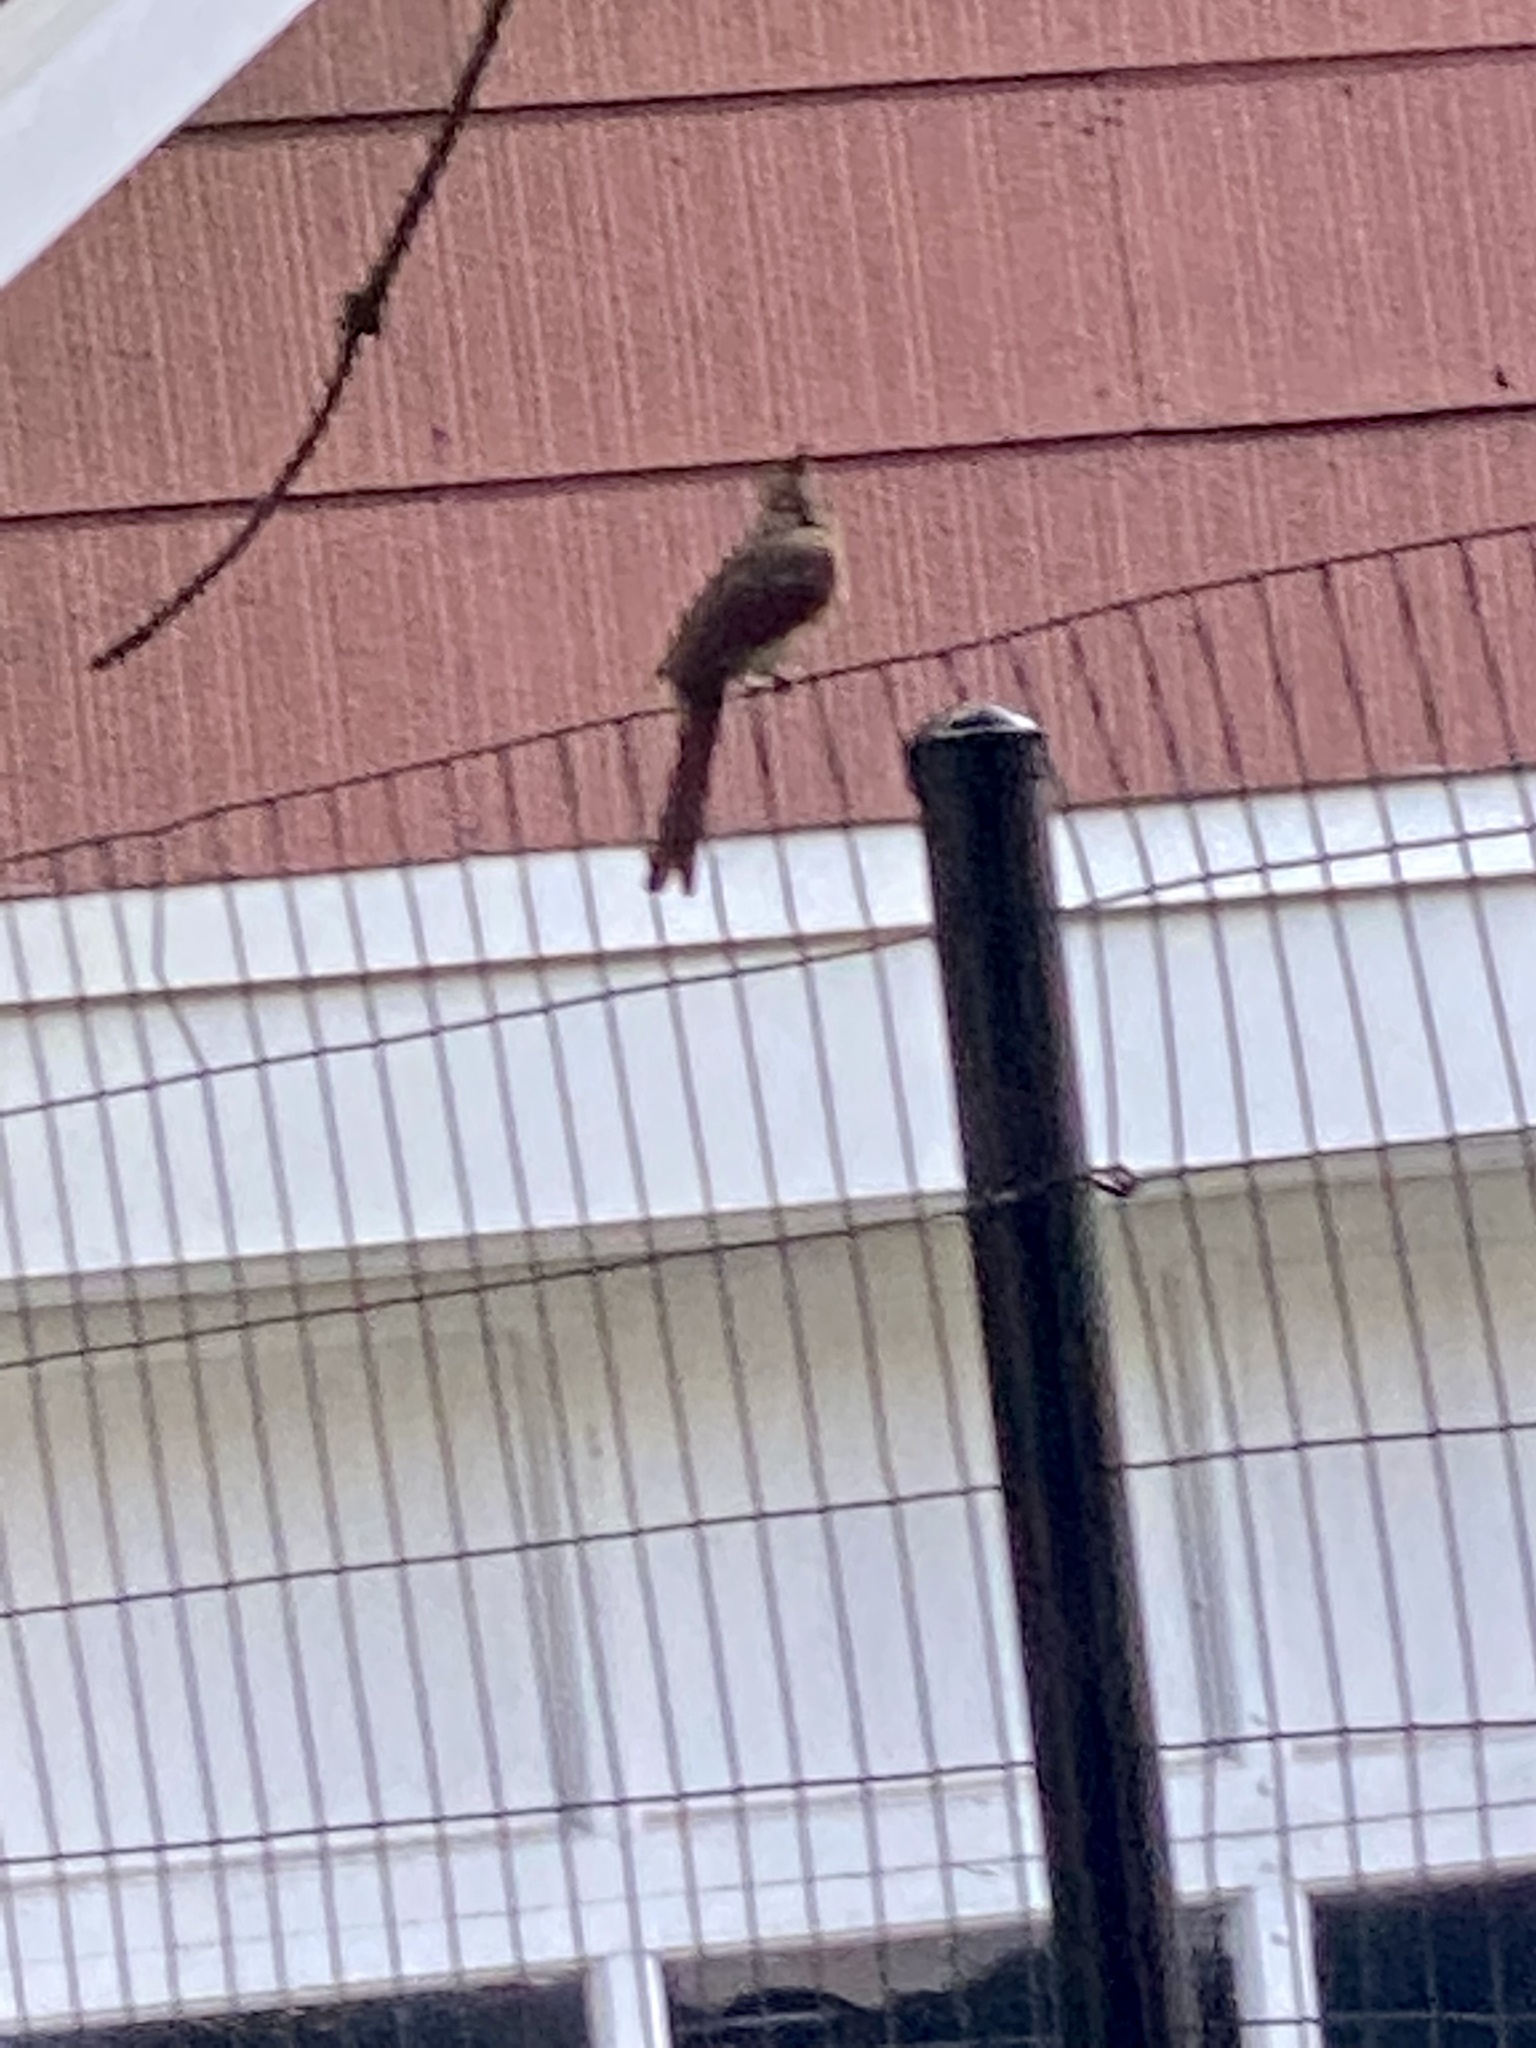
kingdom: Animalia
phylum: Chordata
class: Aves
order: Passeriformes
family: Cardinalidae
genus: Cardinalis
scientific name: Cardinalis cardinalis
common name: Northern cardinal
